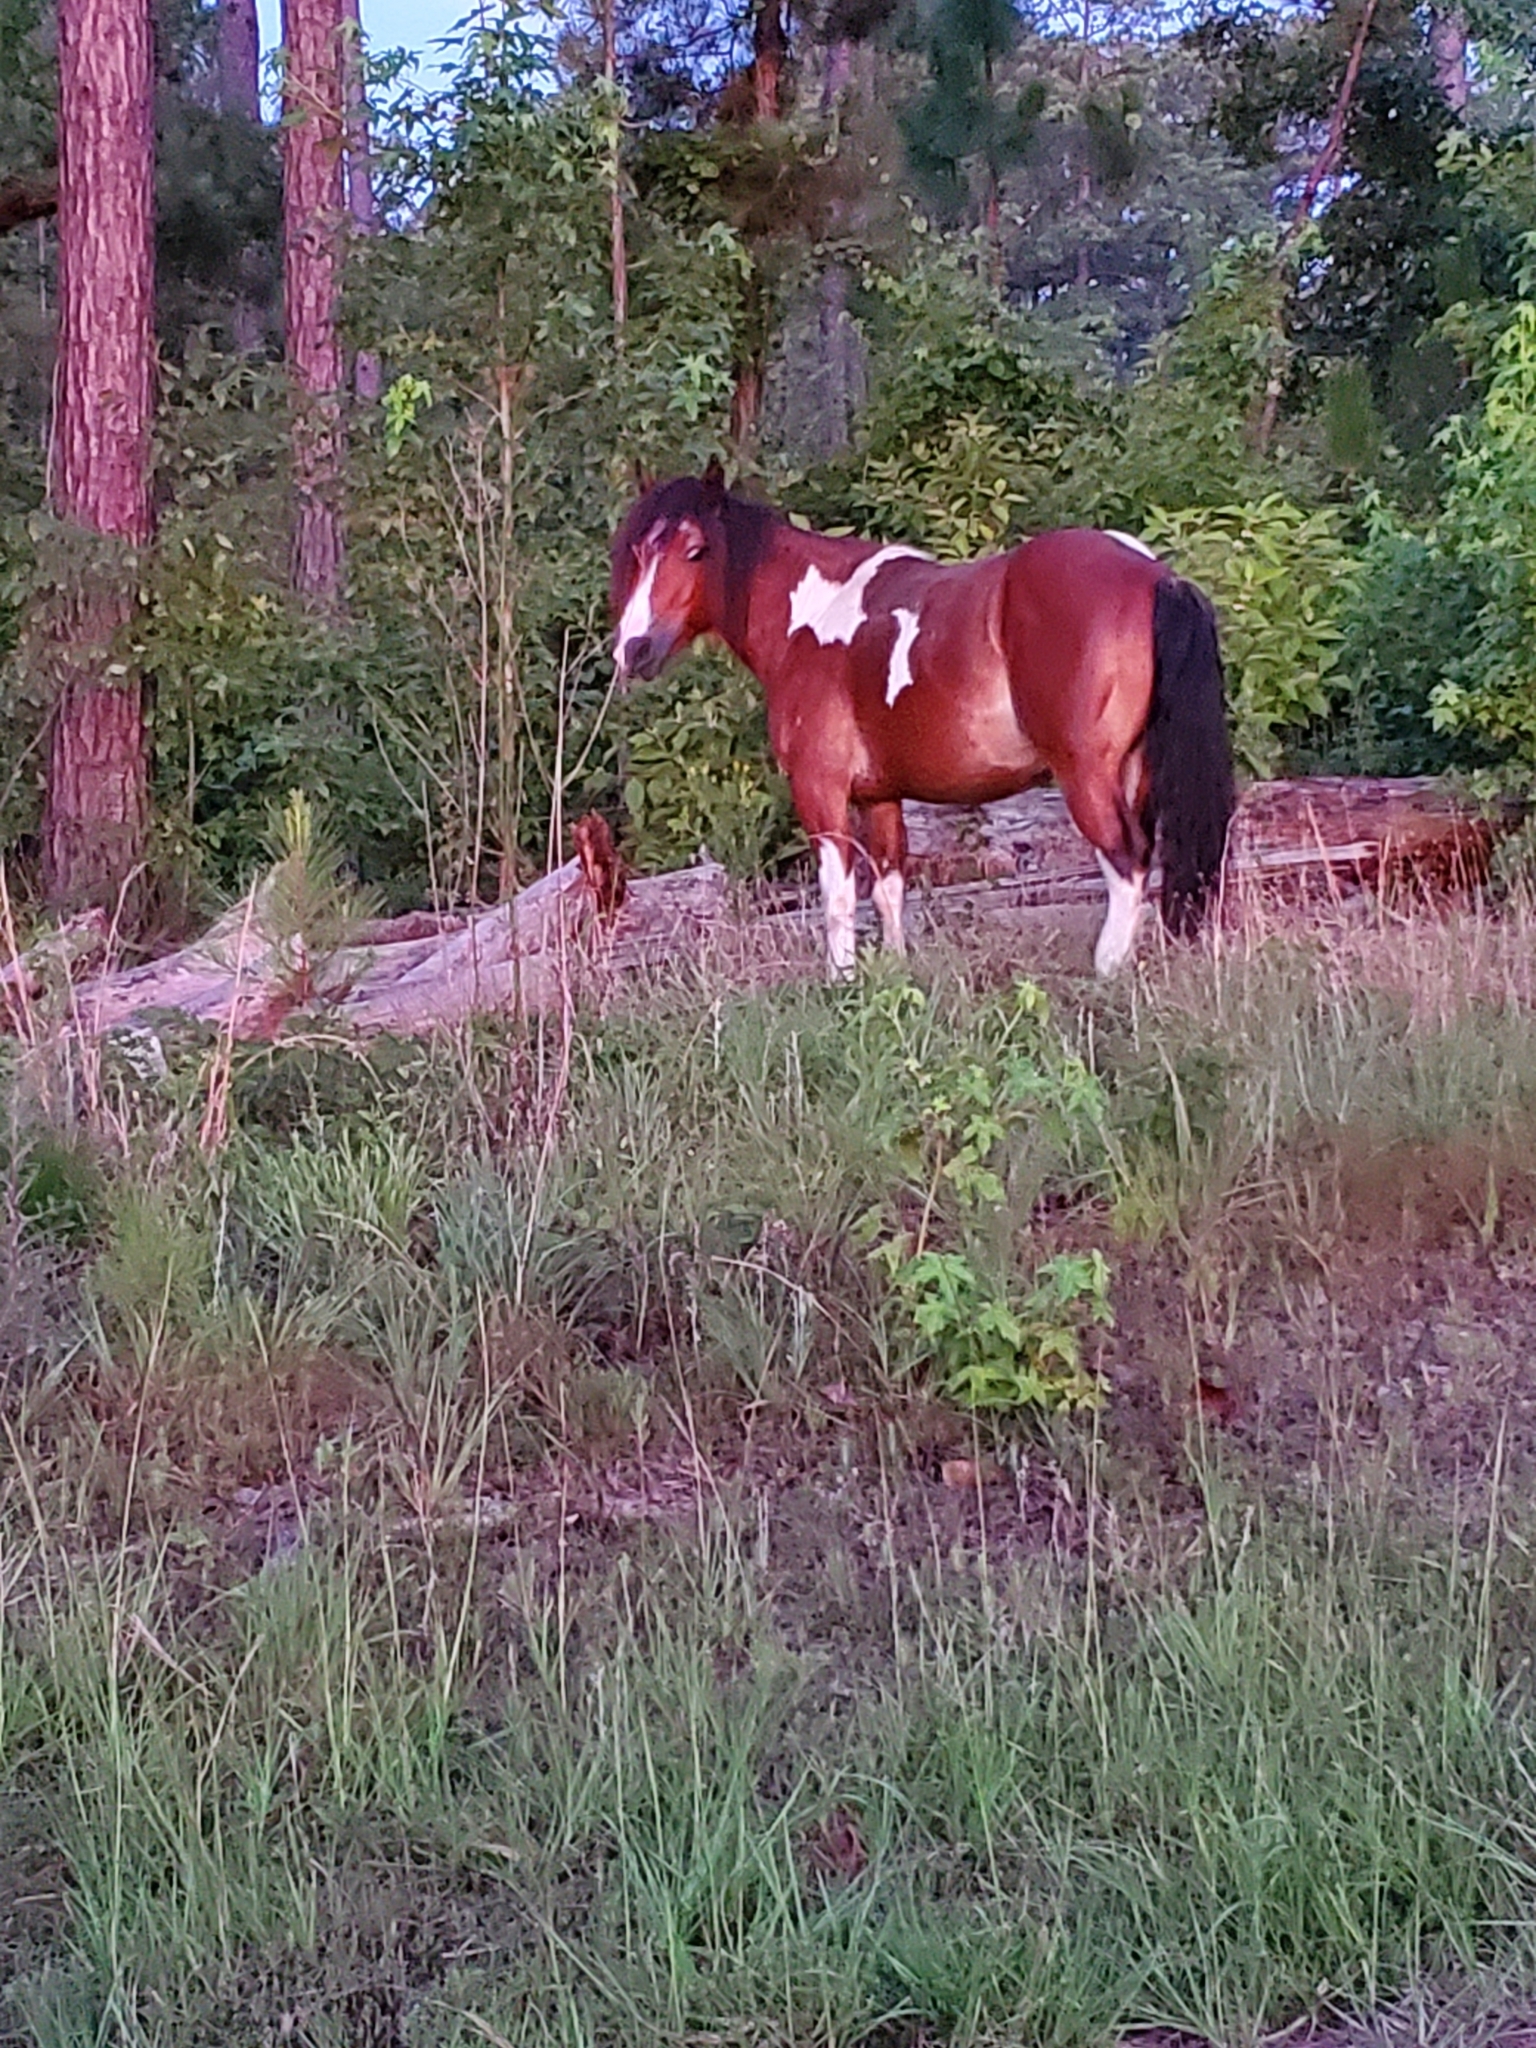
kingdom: Animalia
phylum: Chordata
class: Mammalia
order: Perissodactyla
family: Equidae
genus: Equus
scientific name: Equus caballus
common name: Horse
